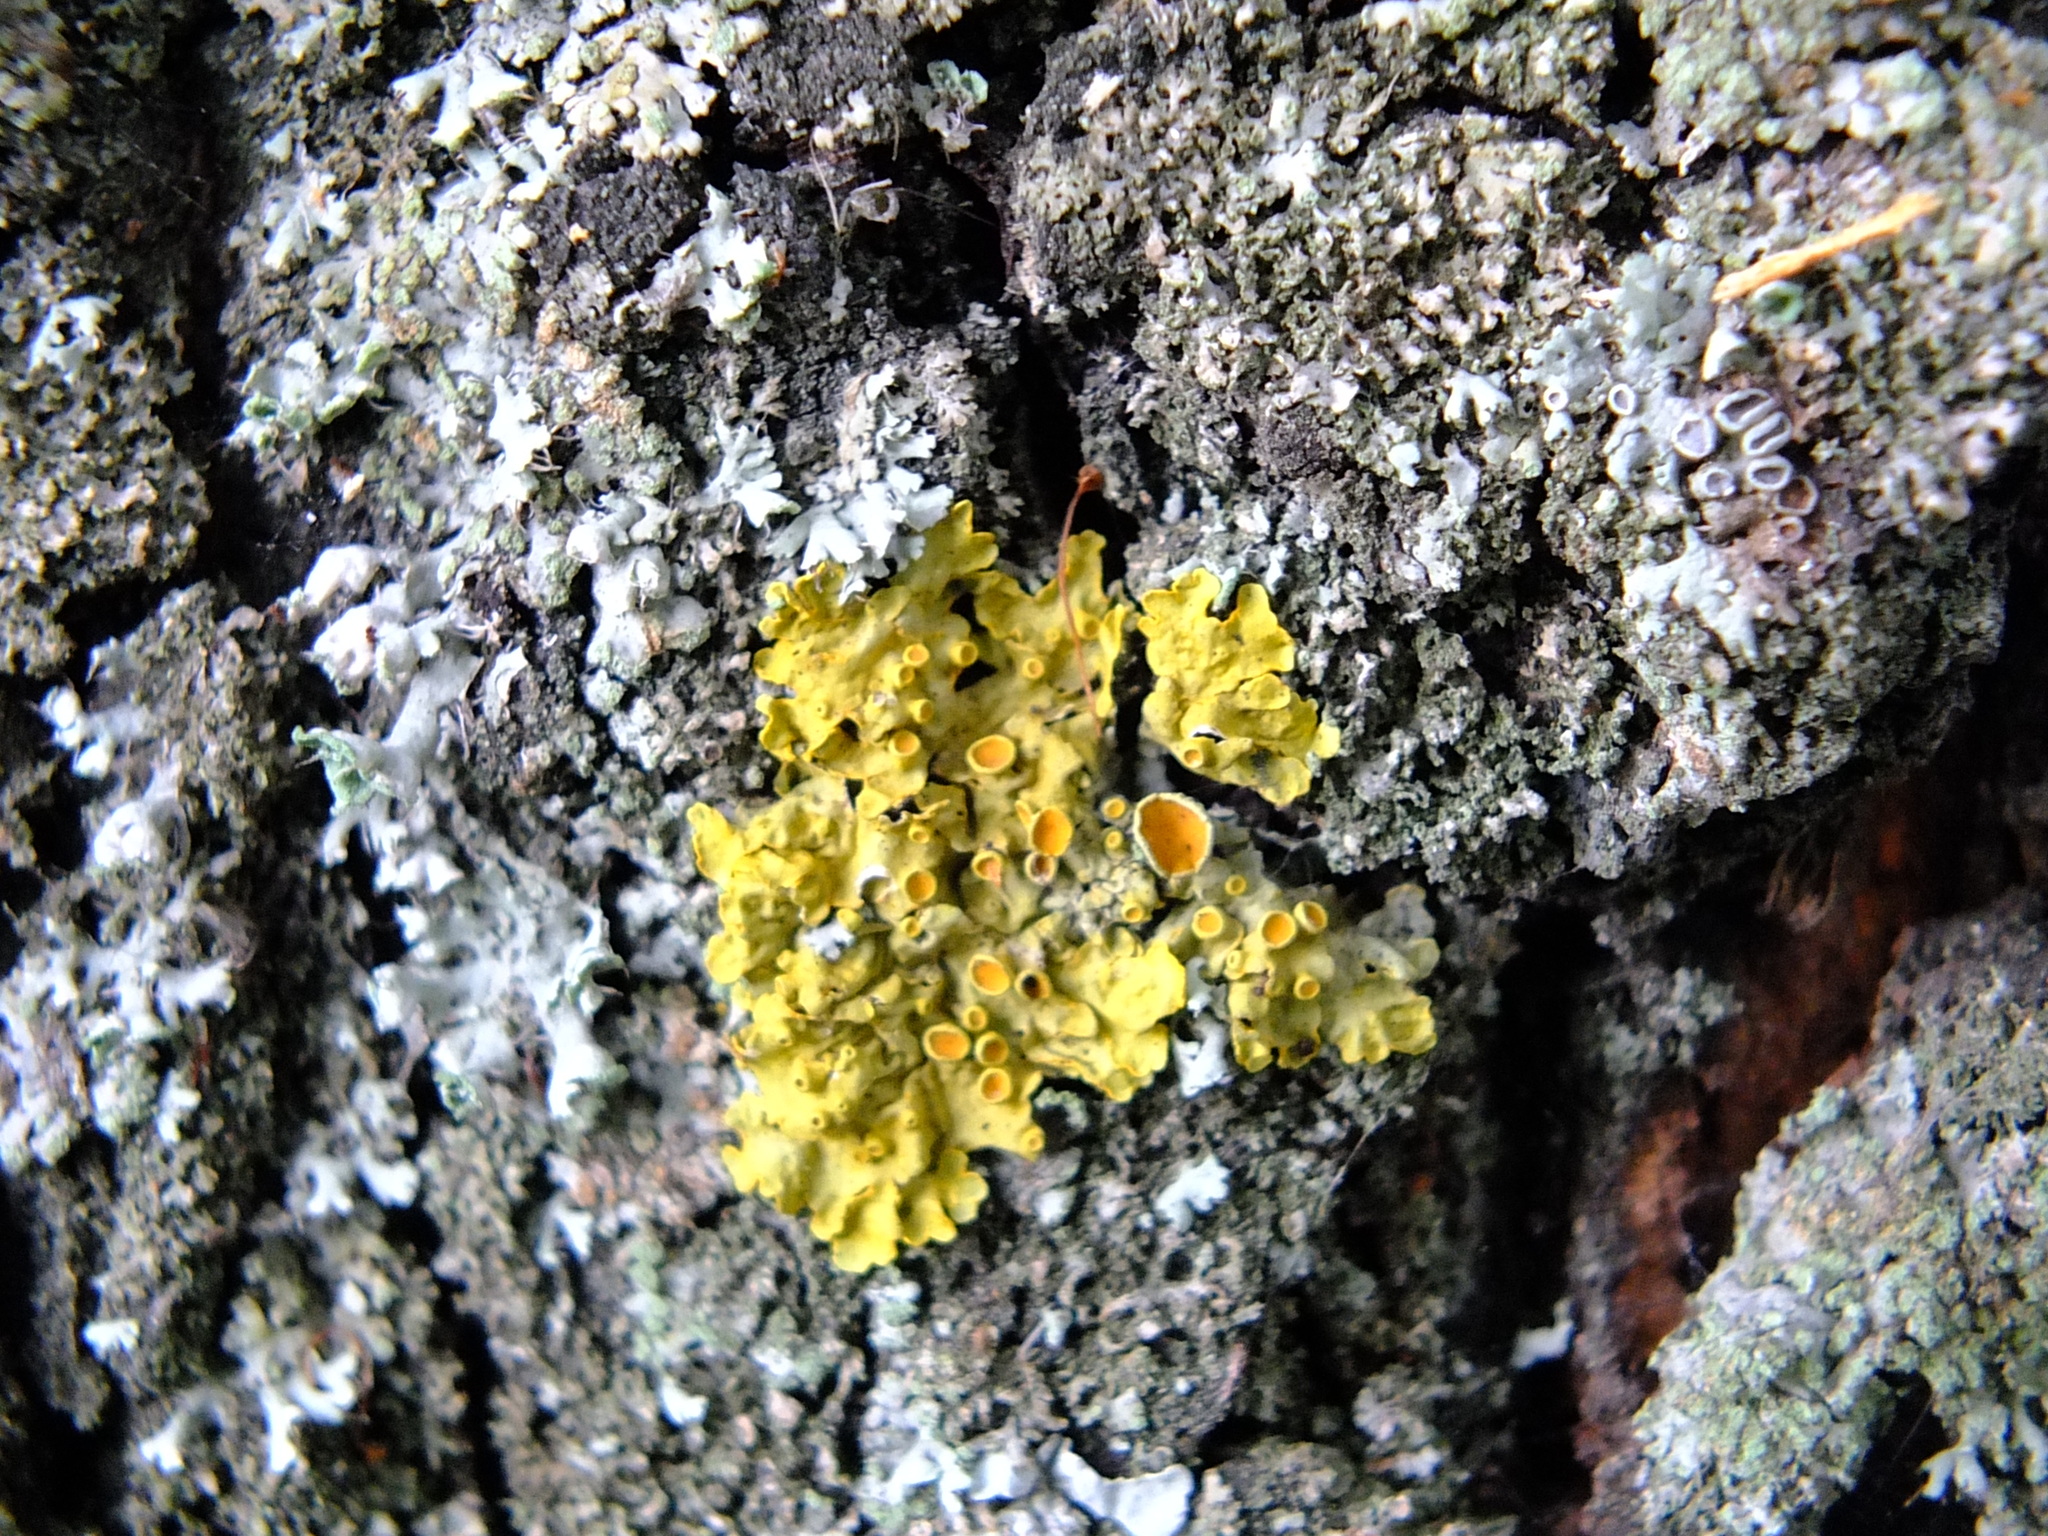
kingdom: Fungi
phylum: Ascomycota
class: Lecanoromycetes
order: Teloschistales
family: Teloschistaceae
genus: Xanthoria
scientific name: Xanthoria parietina
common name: Common orange lichen
